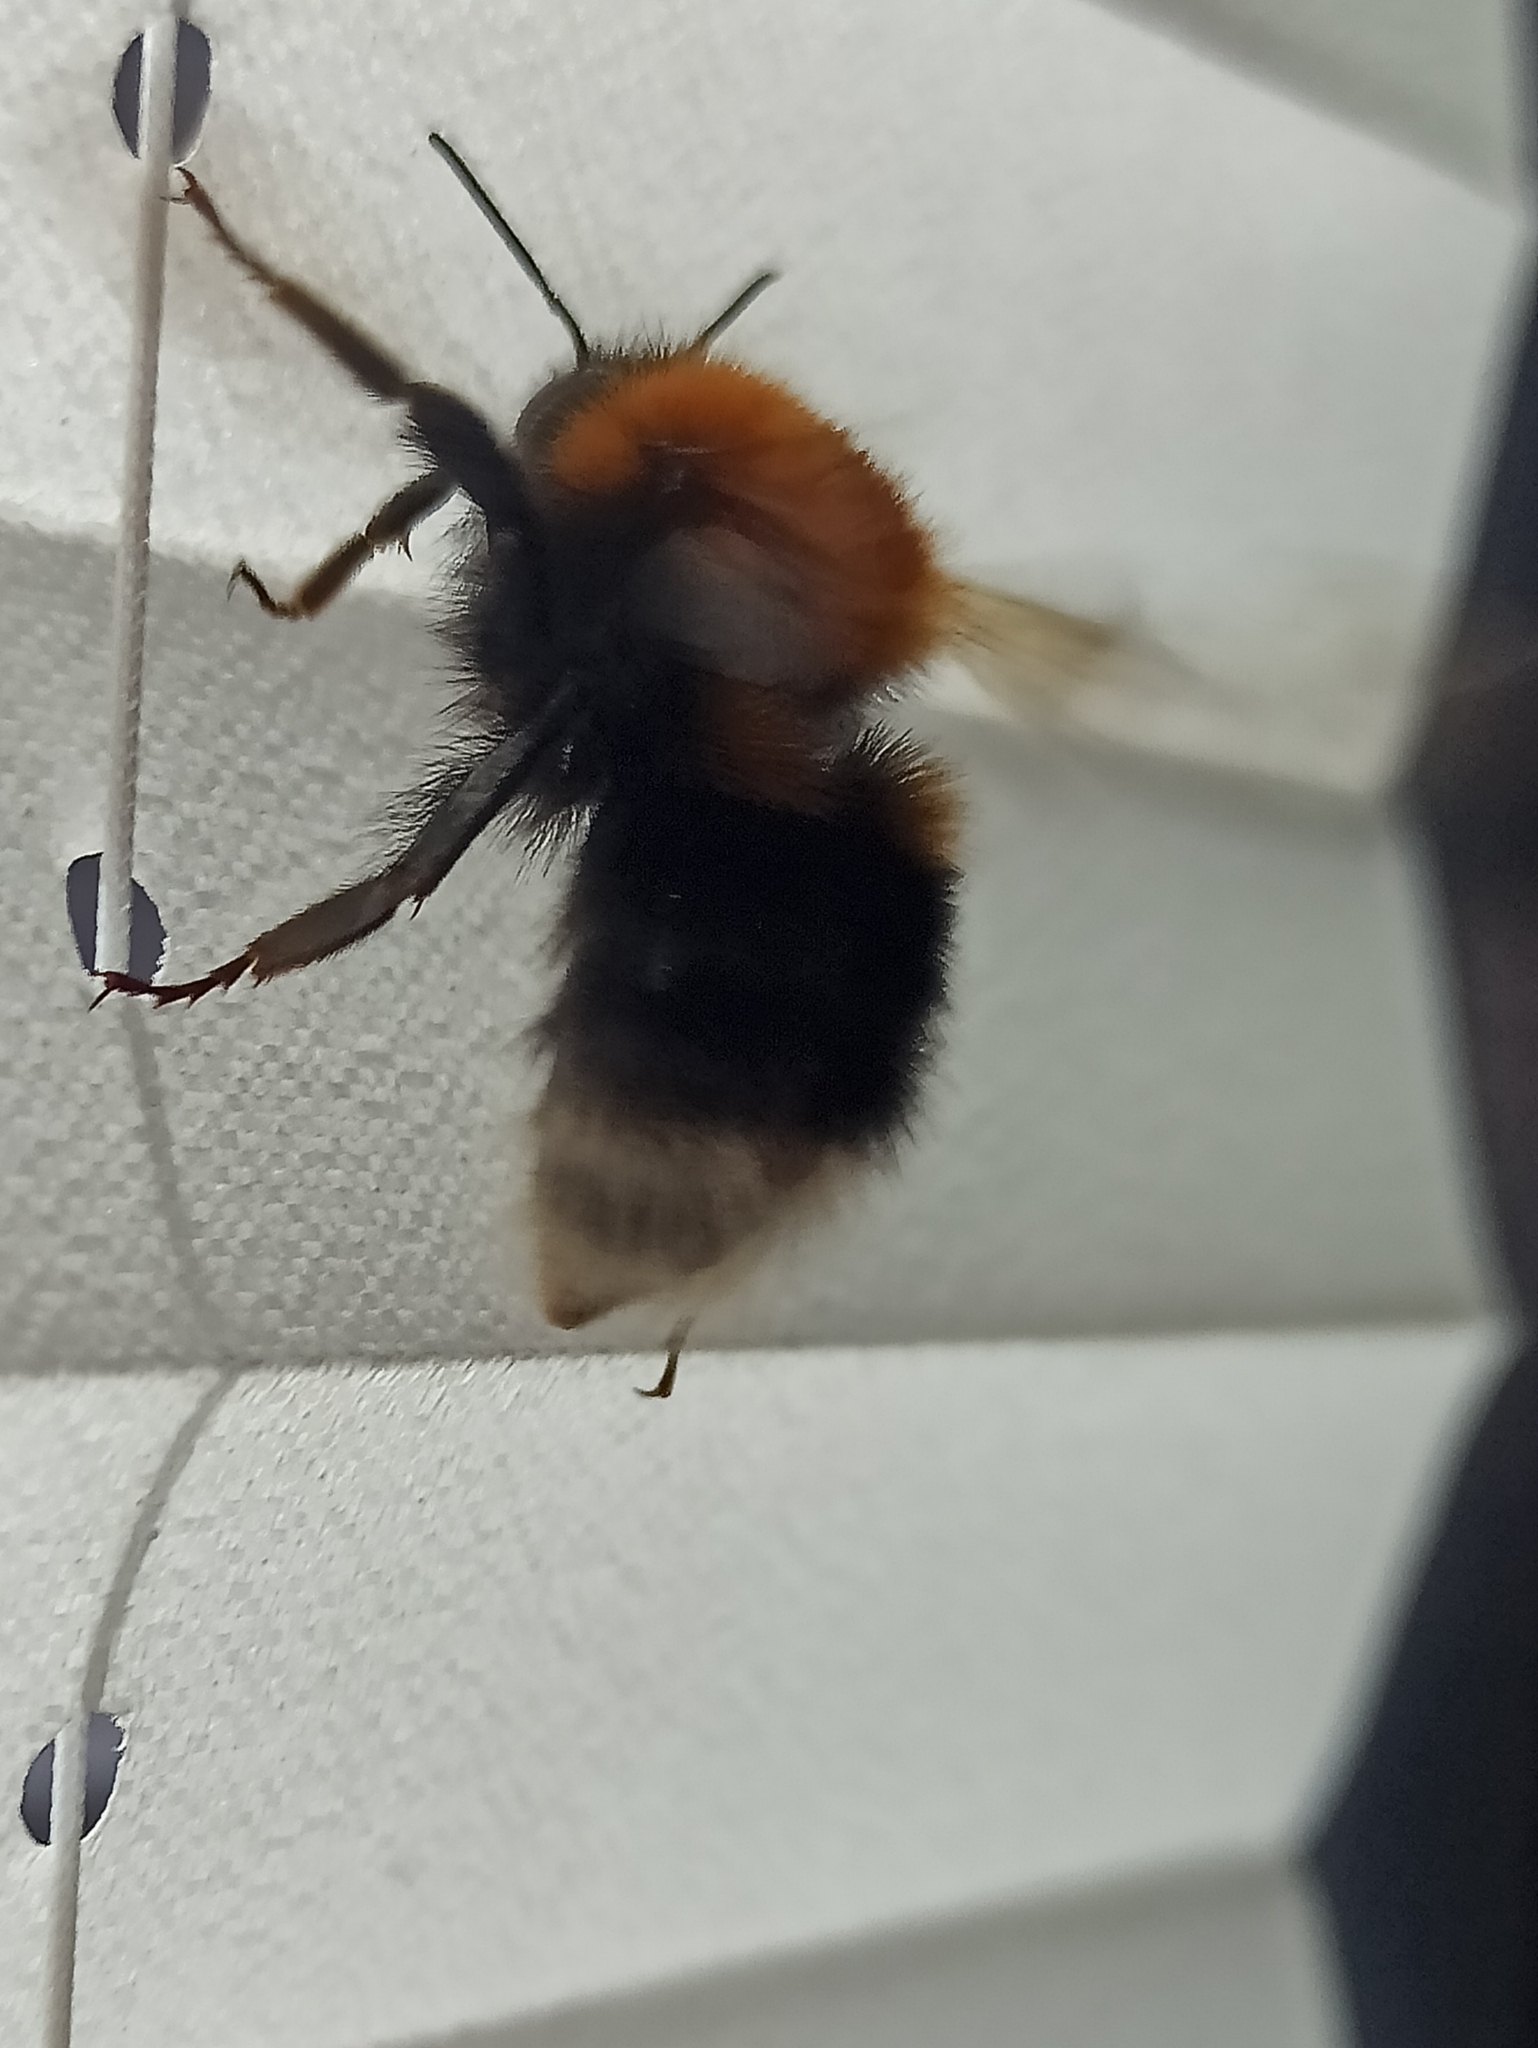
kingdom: Animalia
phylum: Arthropoda
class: Insecta
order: Hymenoptera
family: Apidae
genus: Bombus
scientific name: Bombus hypnorum
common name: New garden bumblebee
